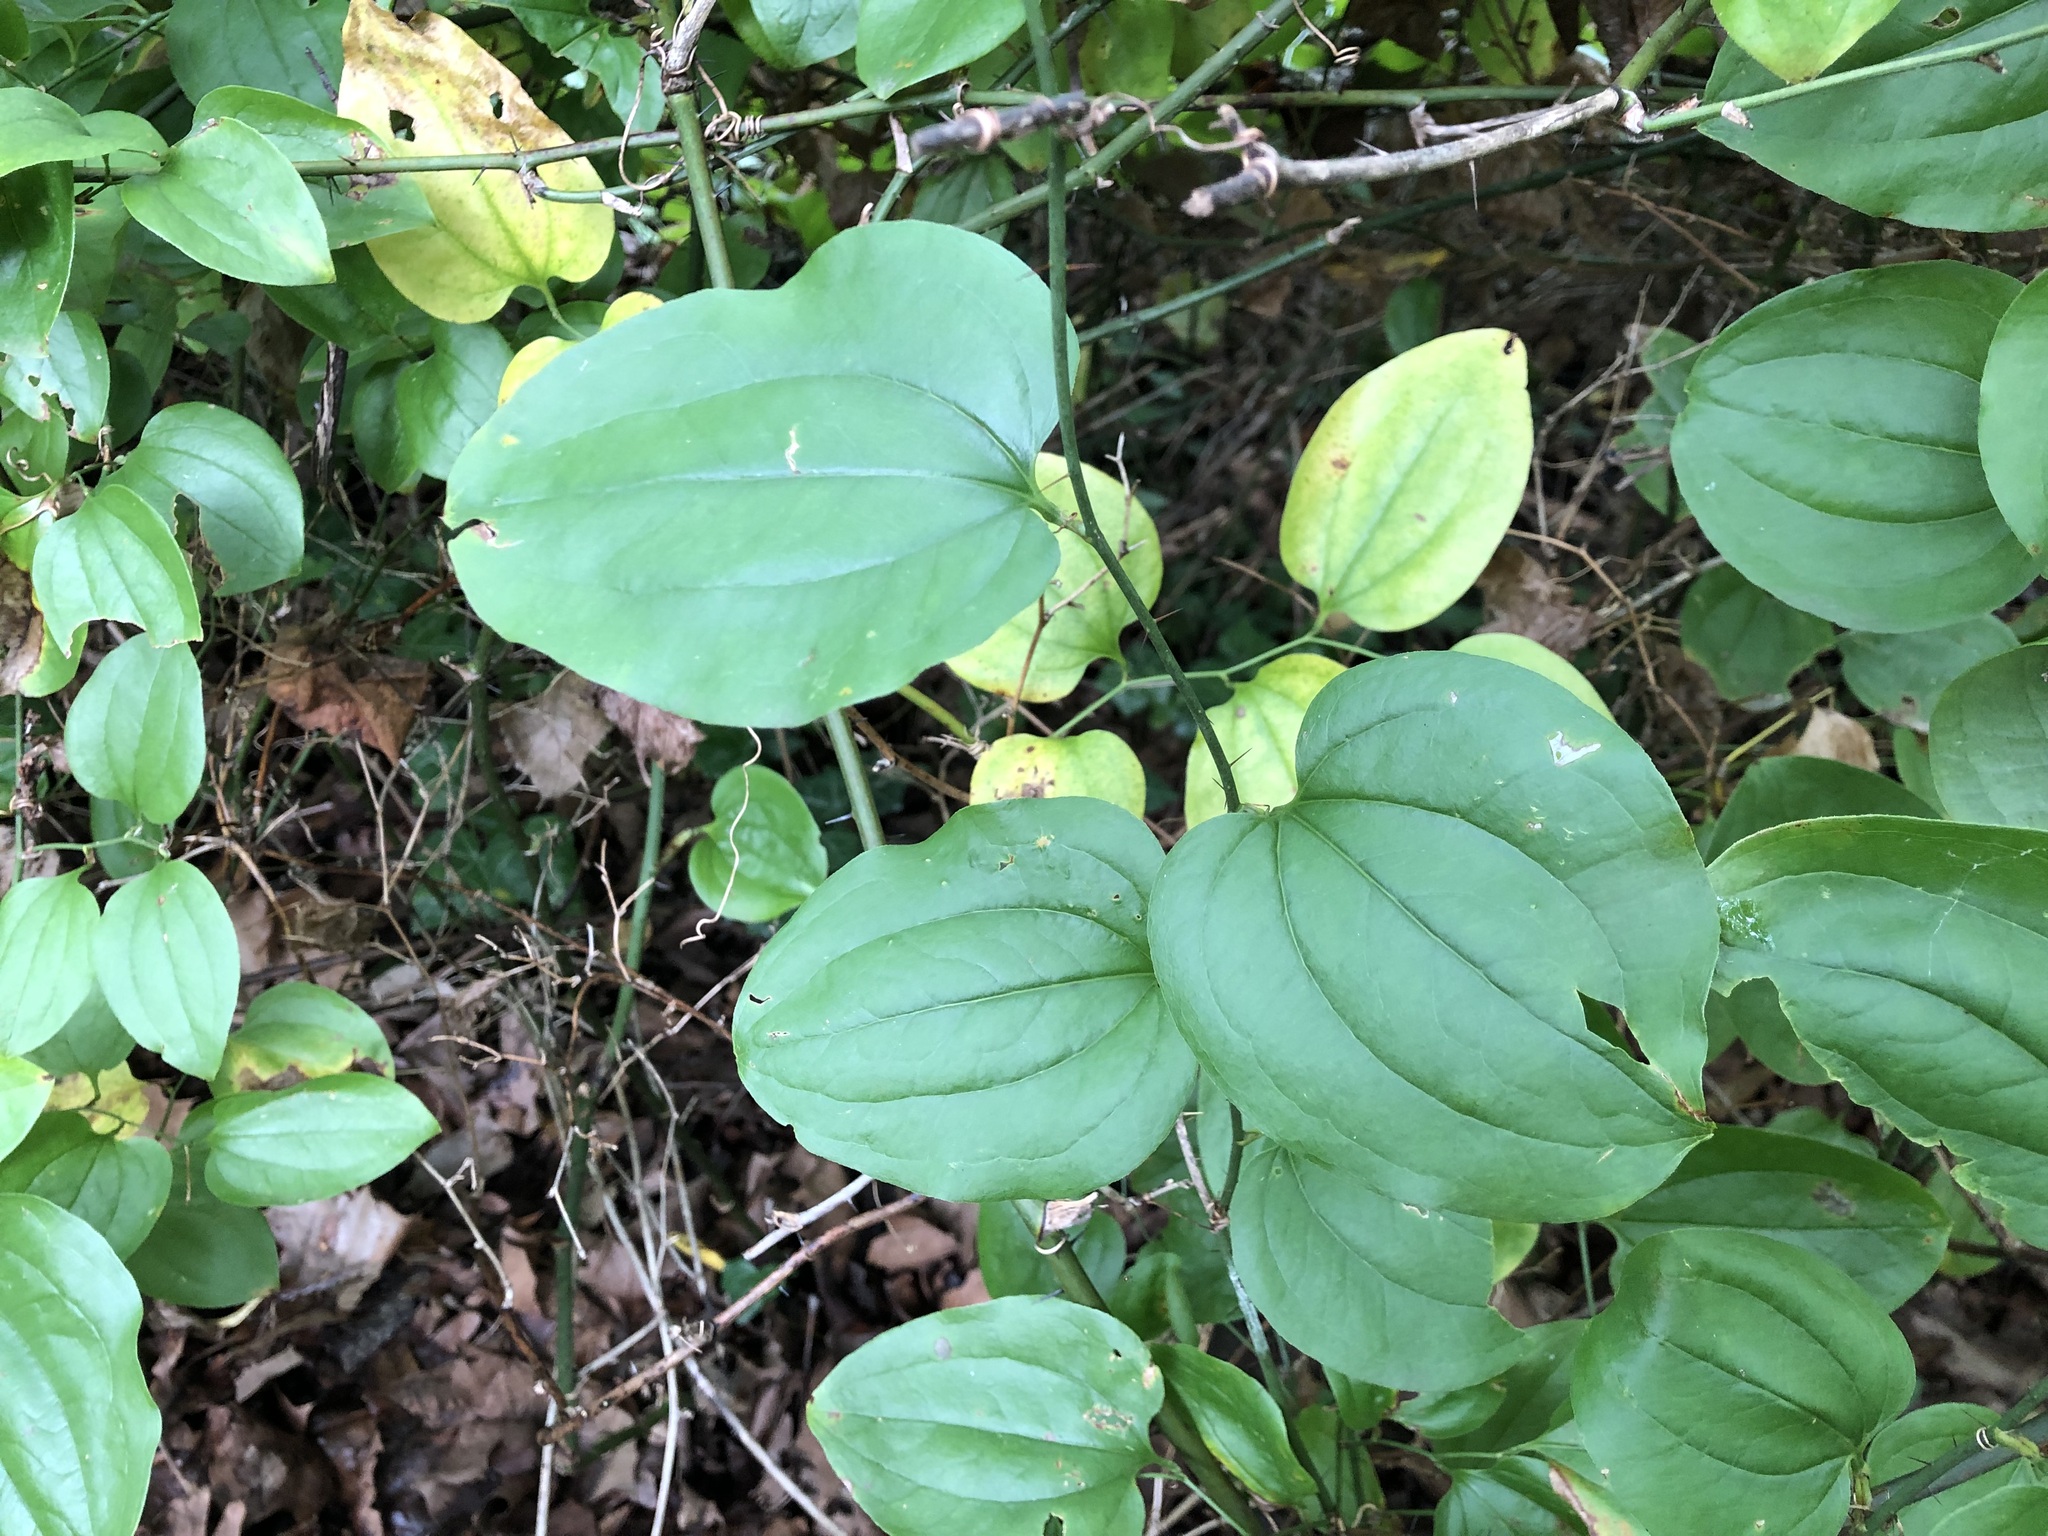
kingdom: Plantae
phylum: Tracheophyta
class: Liliopsida
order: Liliales
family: Smilacaceae
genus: Smilax
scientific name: Smilax tamnoides
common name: Hellfetter
